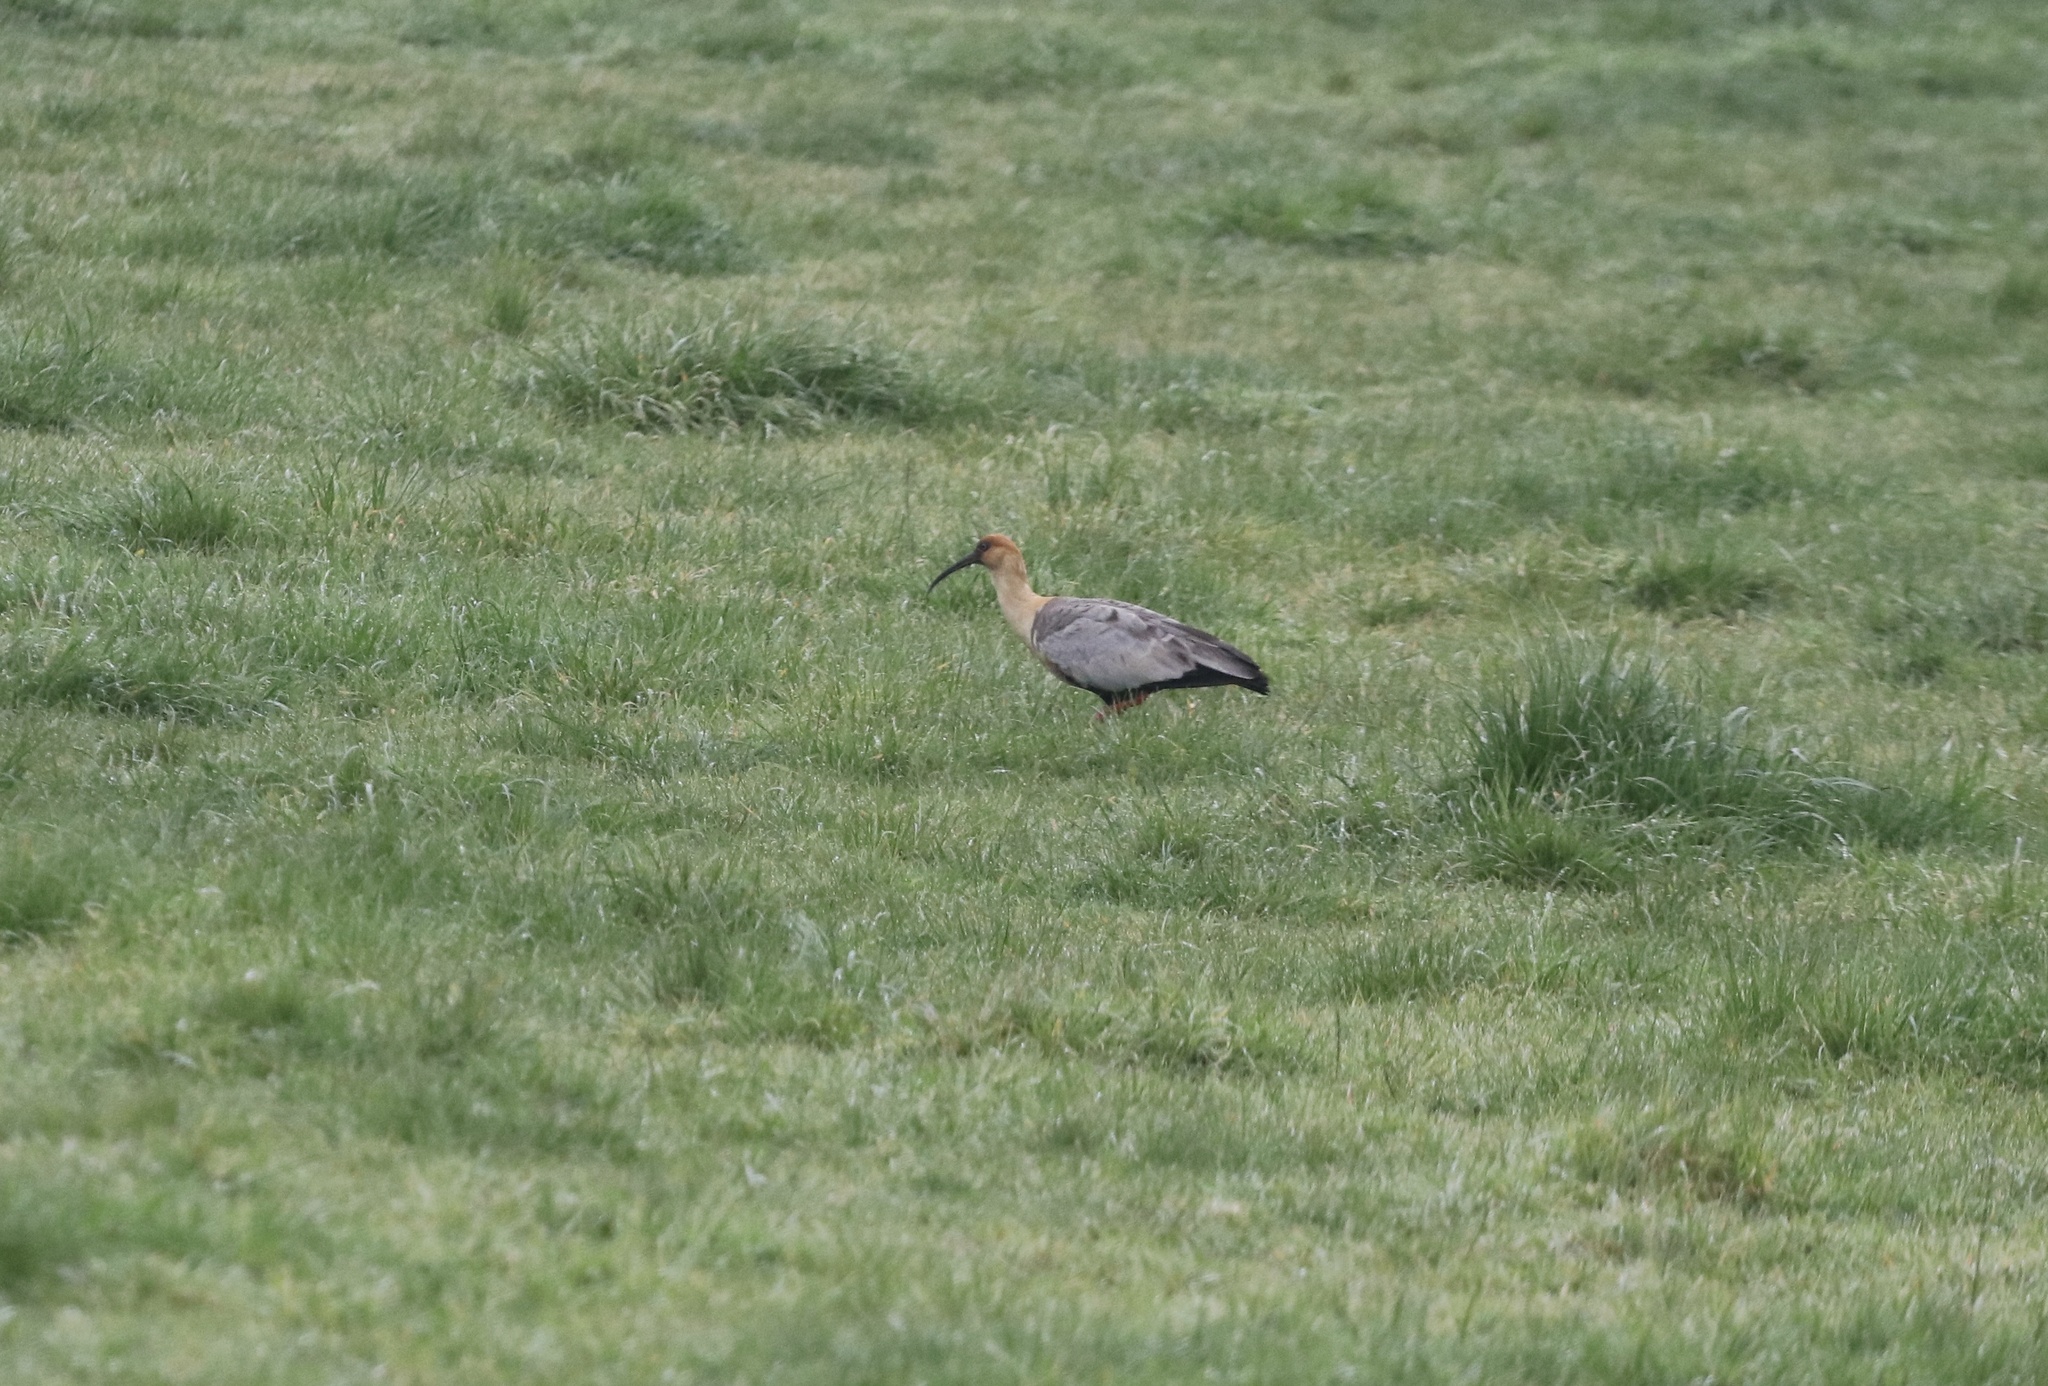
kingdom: Animalia
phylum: Chordata
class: Aves
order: Pelecaniformes
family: Threskiornithidae
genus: Theristicus
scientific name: Theristicus melanopis
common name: Black-faced ibis
